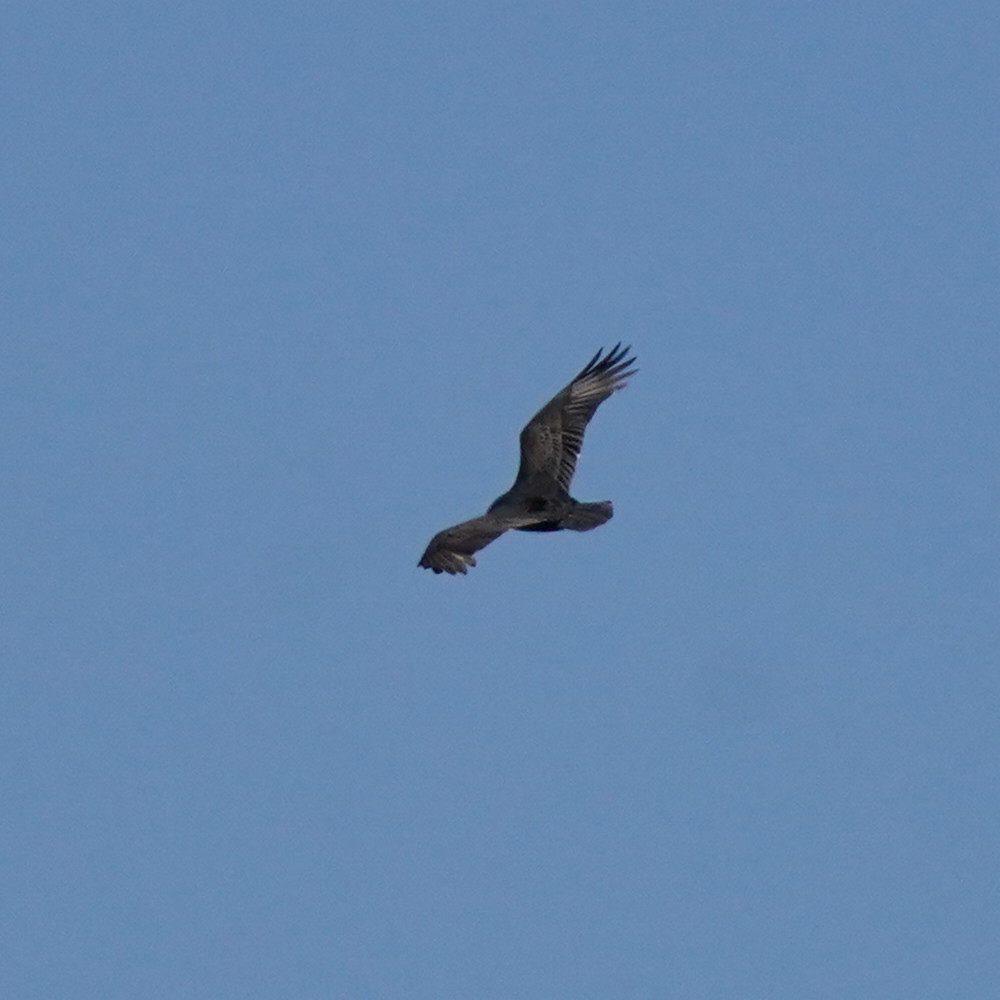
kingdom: Animalia
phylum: Chordata
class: Aves
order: Accipitriformes
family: Cathartidae
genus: Cathartes
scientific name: Cathartes aura
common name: Turkey vulture
